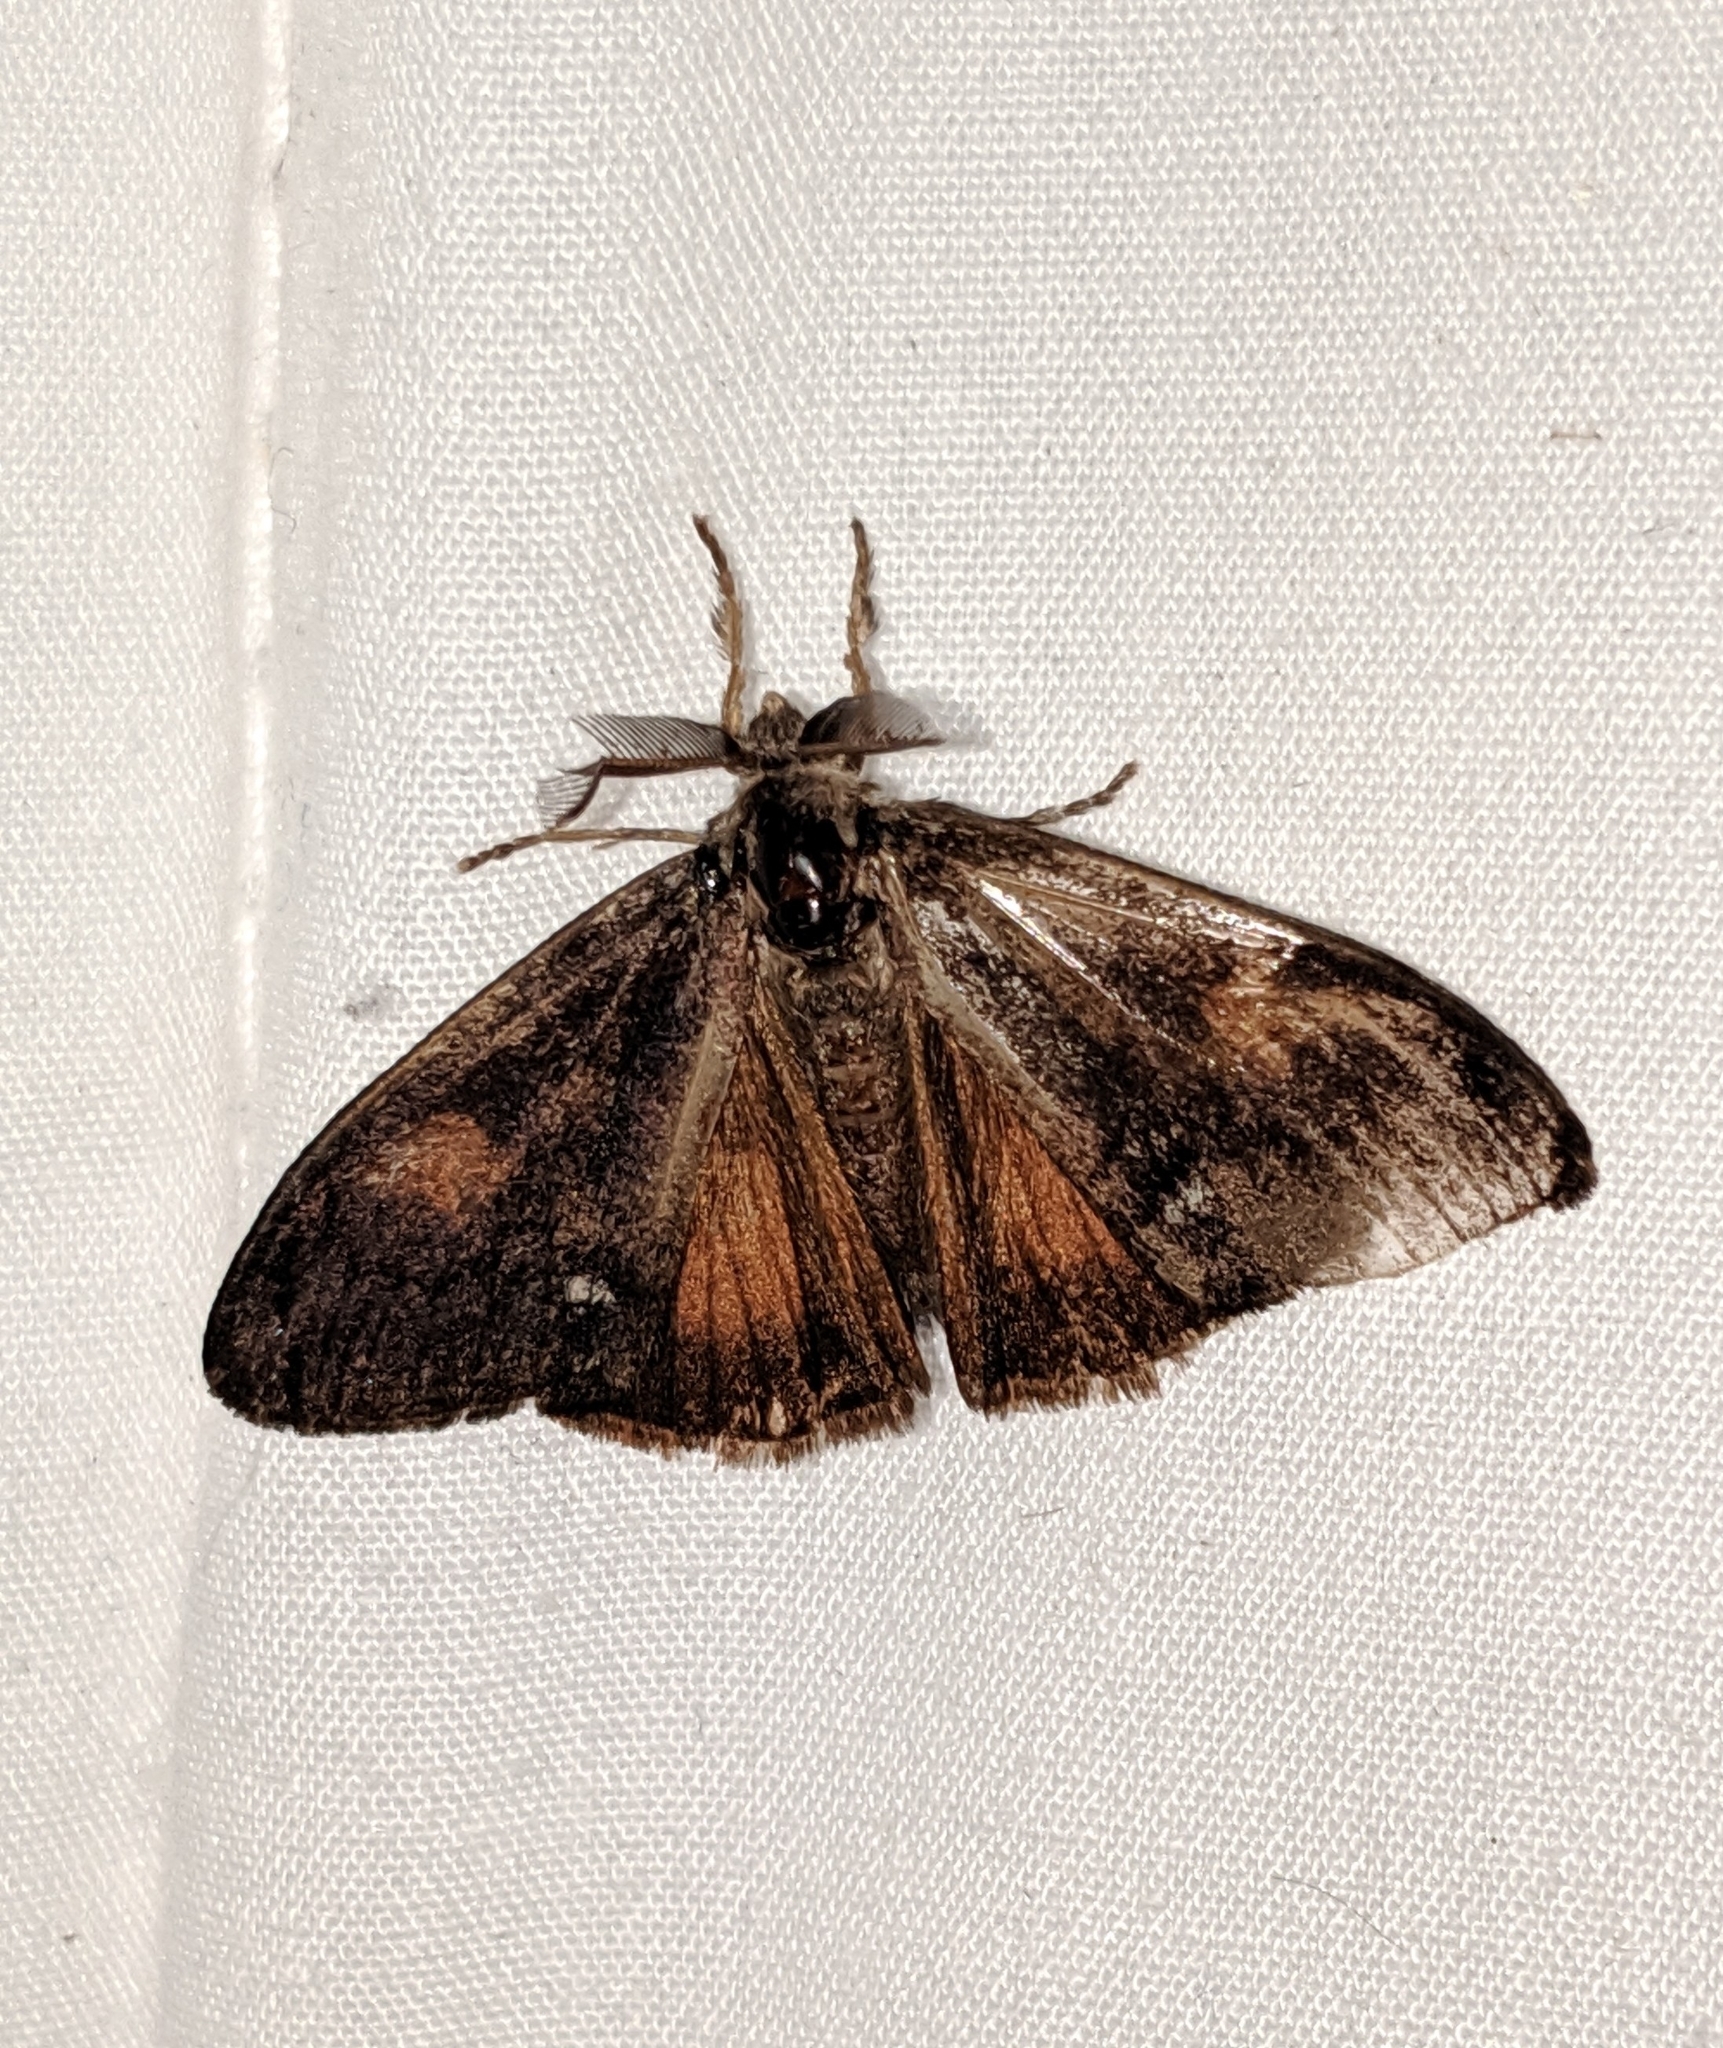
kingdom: Animalia
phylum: Arthropoda
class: Insecta
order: Lepidoptera
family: Erebidae
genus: Orgyia
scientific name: Orgyia pseudotsugata
